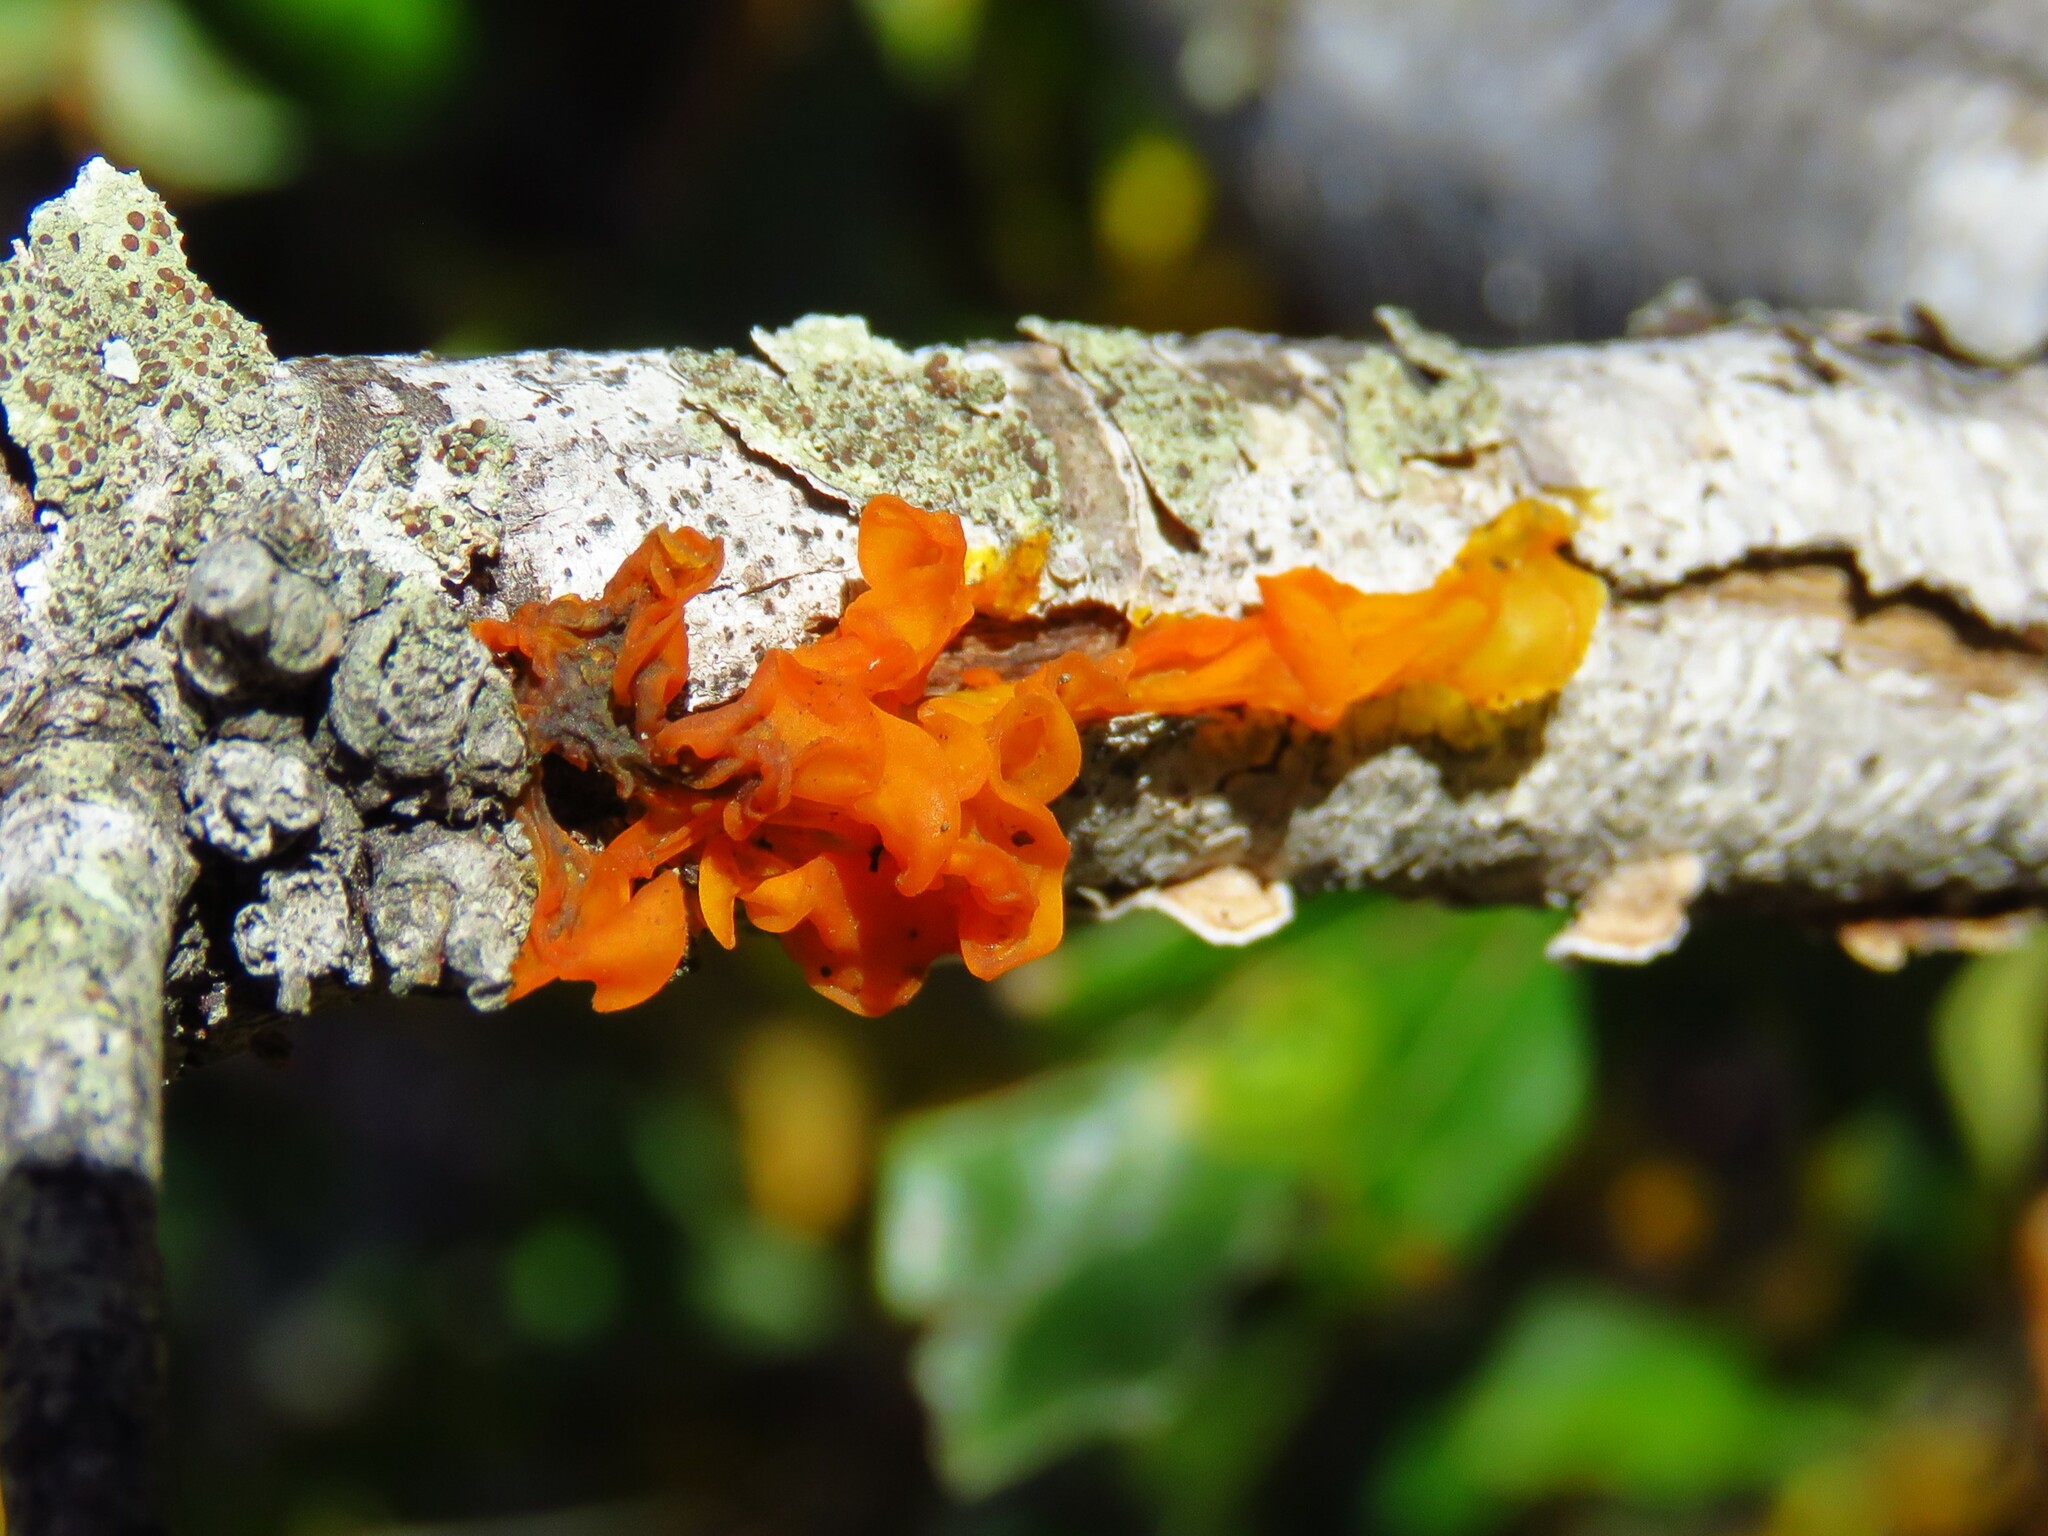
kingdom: Fungi
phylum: Basidiomycota
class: Tremellomycetes
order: Tremellales
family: Tremellaceae
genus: Tremella
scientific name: Tremella mesenterica
